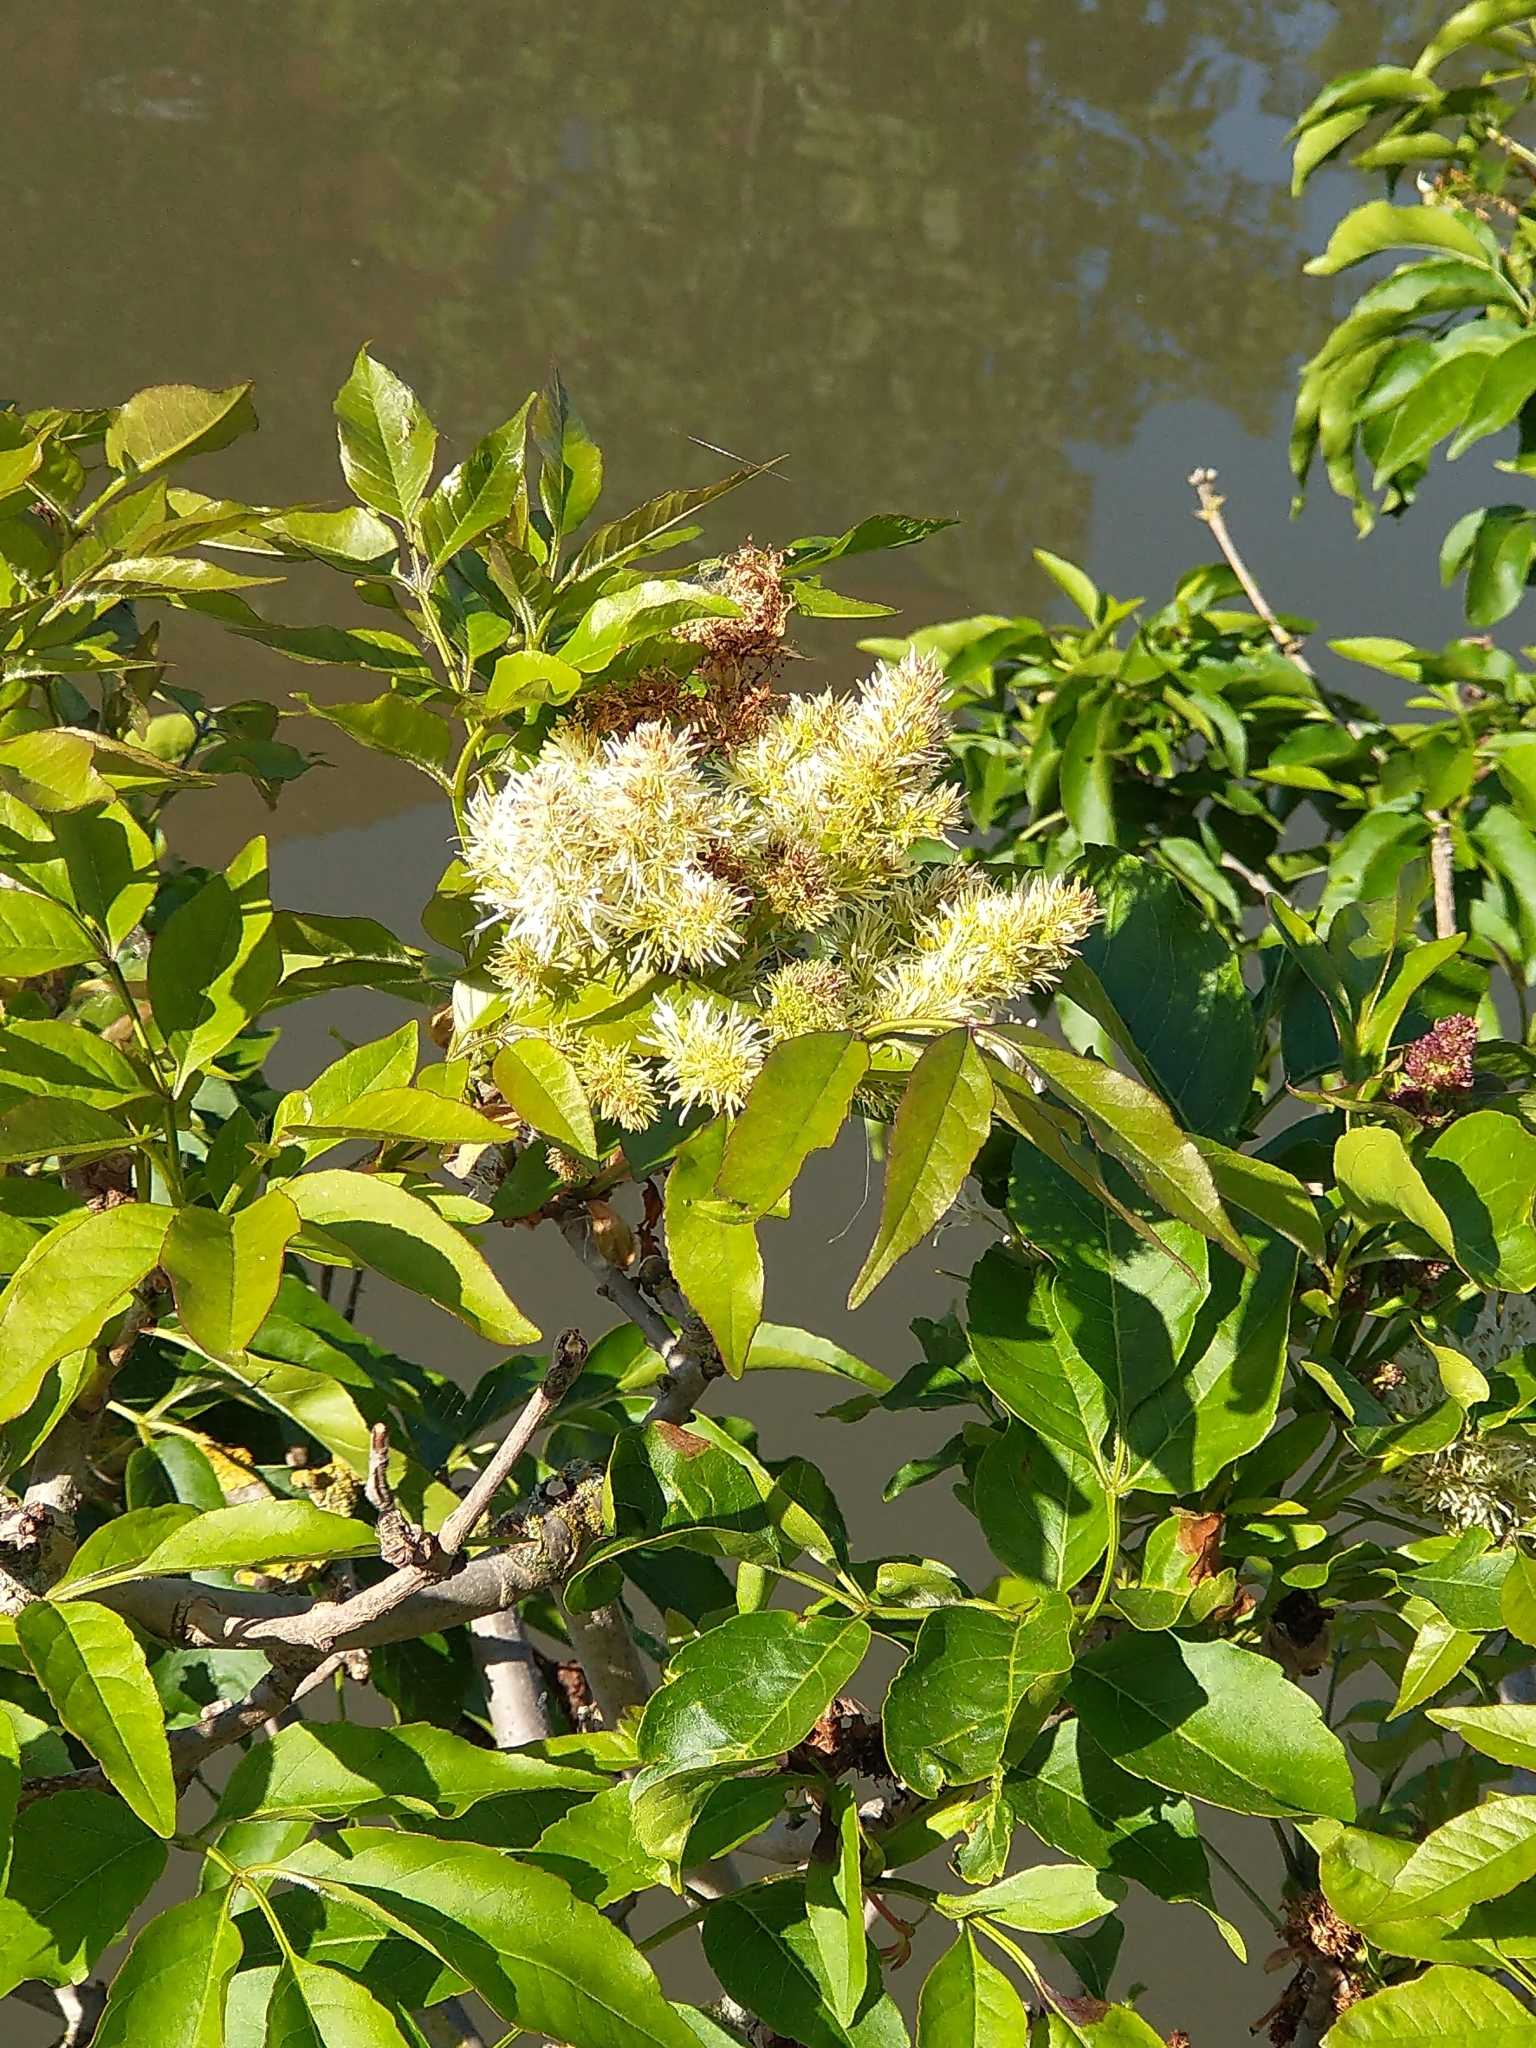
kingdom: Plantae
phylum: Tracheophyta
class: Magnoliopsida
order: Lamiales
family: Oleaceae
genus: Fraxinus
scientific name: Fraxinus ornus
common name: Manna ash
